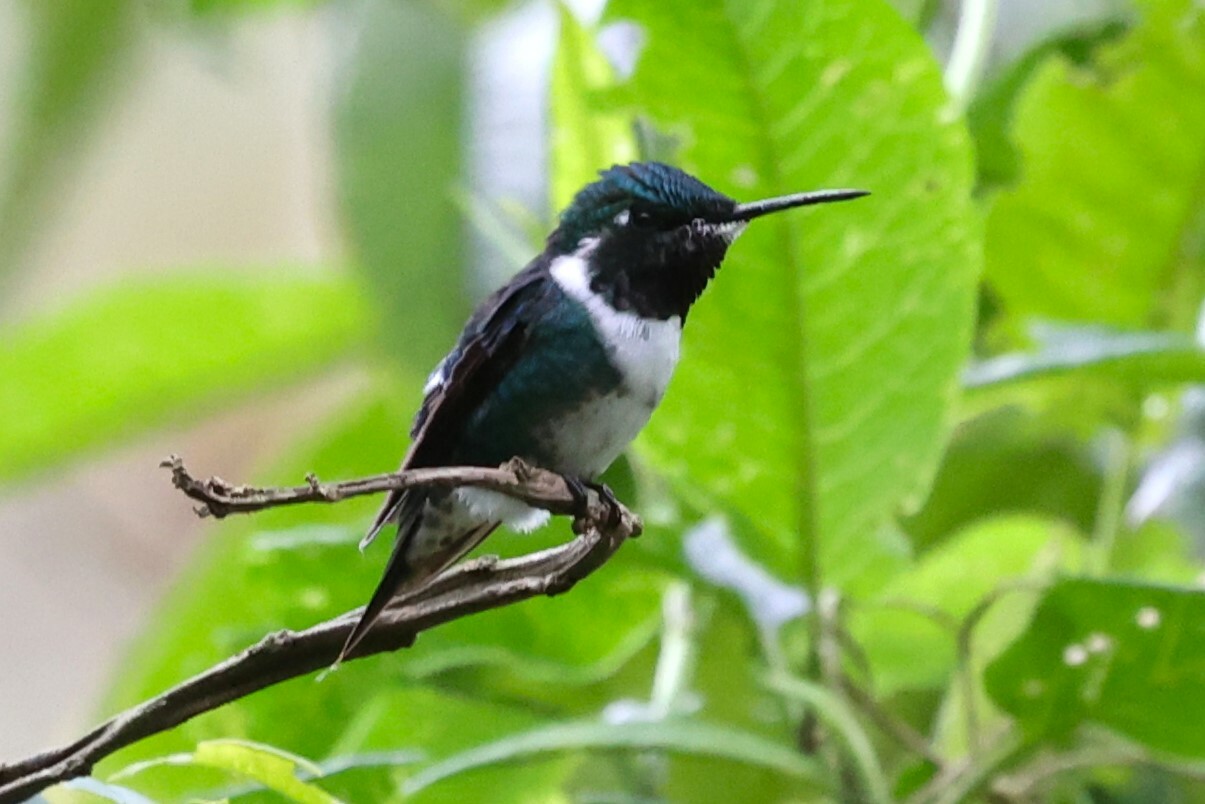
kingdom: Animalia
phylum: Chordata
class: Aves
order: Apodiformes
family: Trochilidae
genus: Chaetocercus
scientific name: Chaetocercus mulsant
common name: White-bellied woodstar
